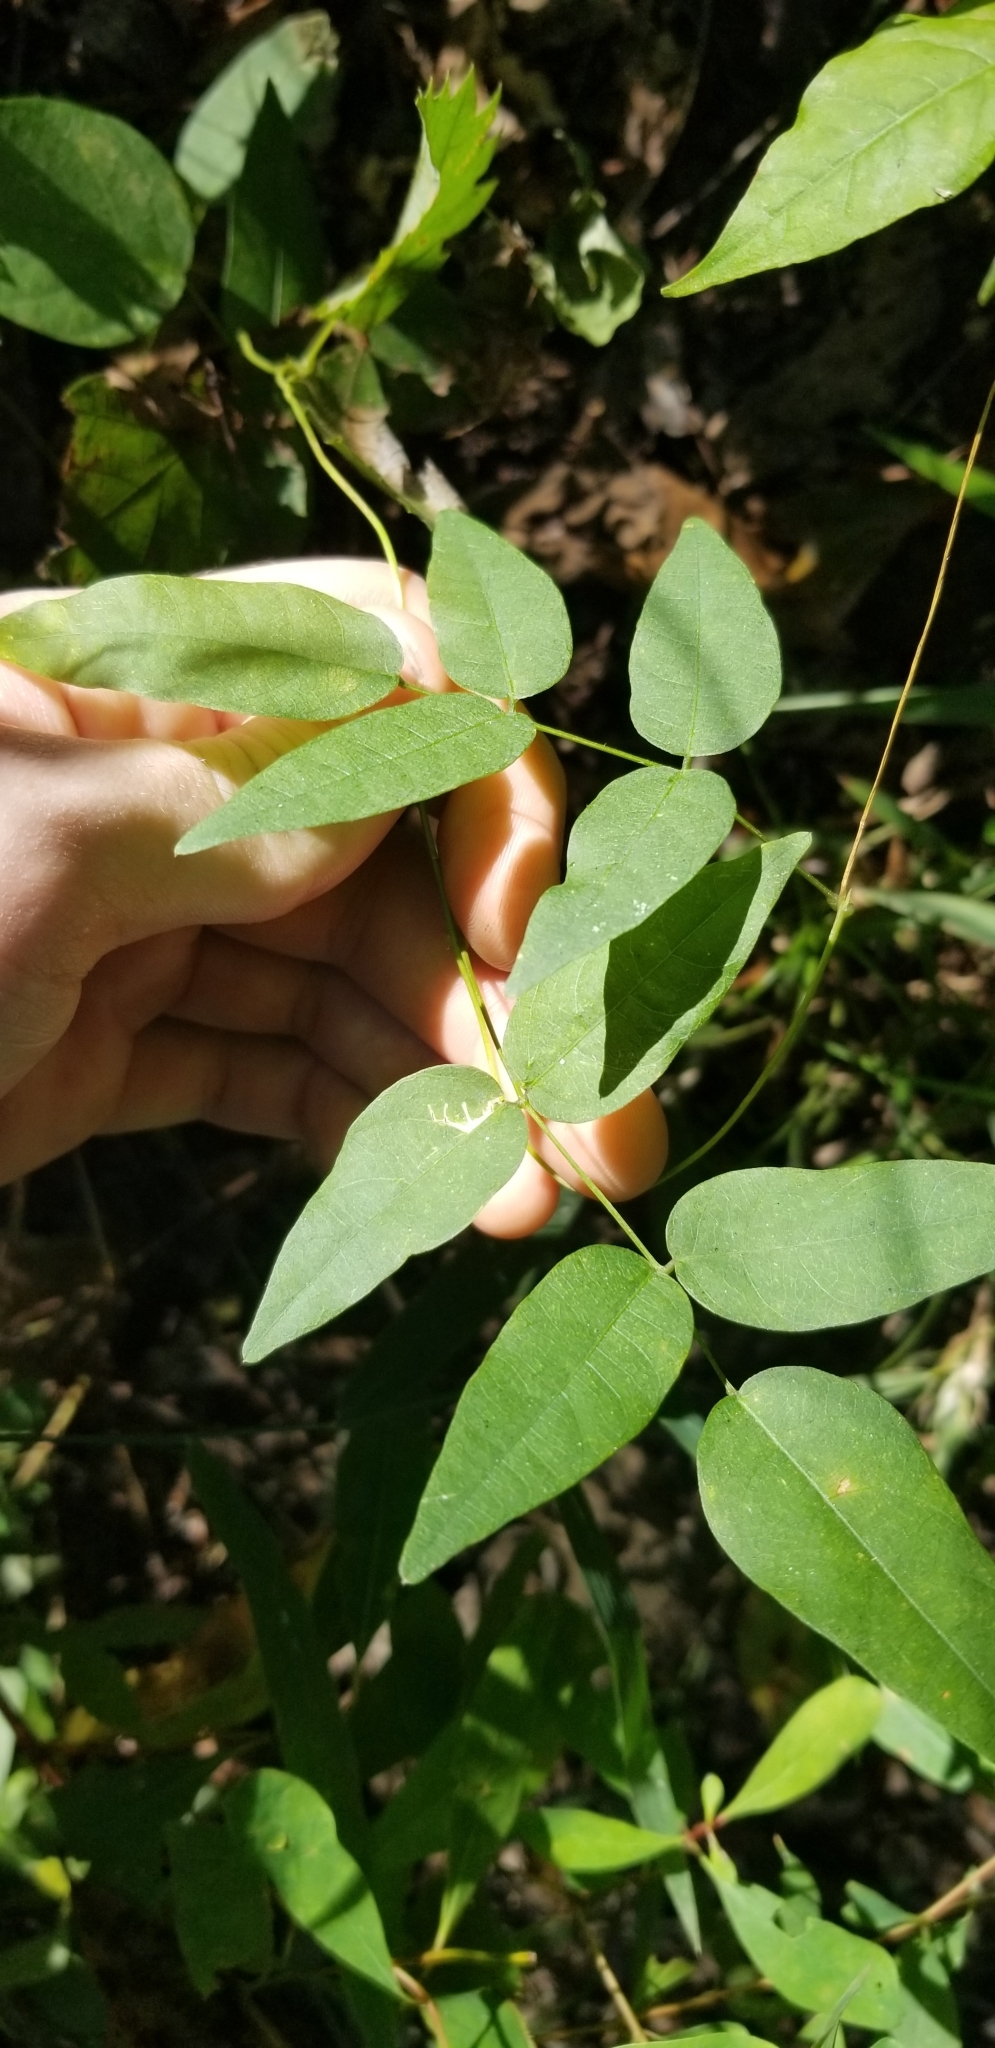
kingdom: Plantae
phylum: Tracheophyta
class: Magnoliopsida
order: Fabales
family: Fabaceae
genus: Apios
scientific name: Apios americana
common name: American potato-bean
